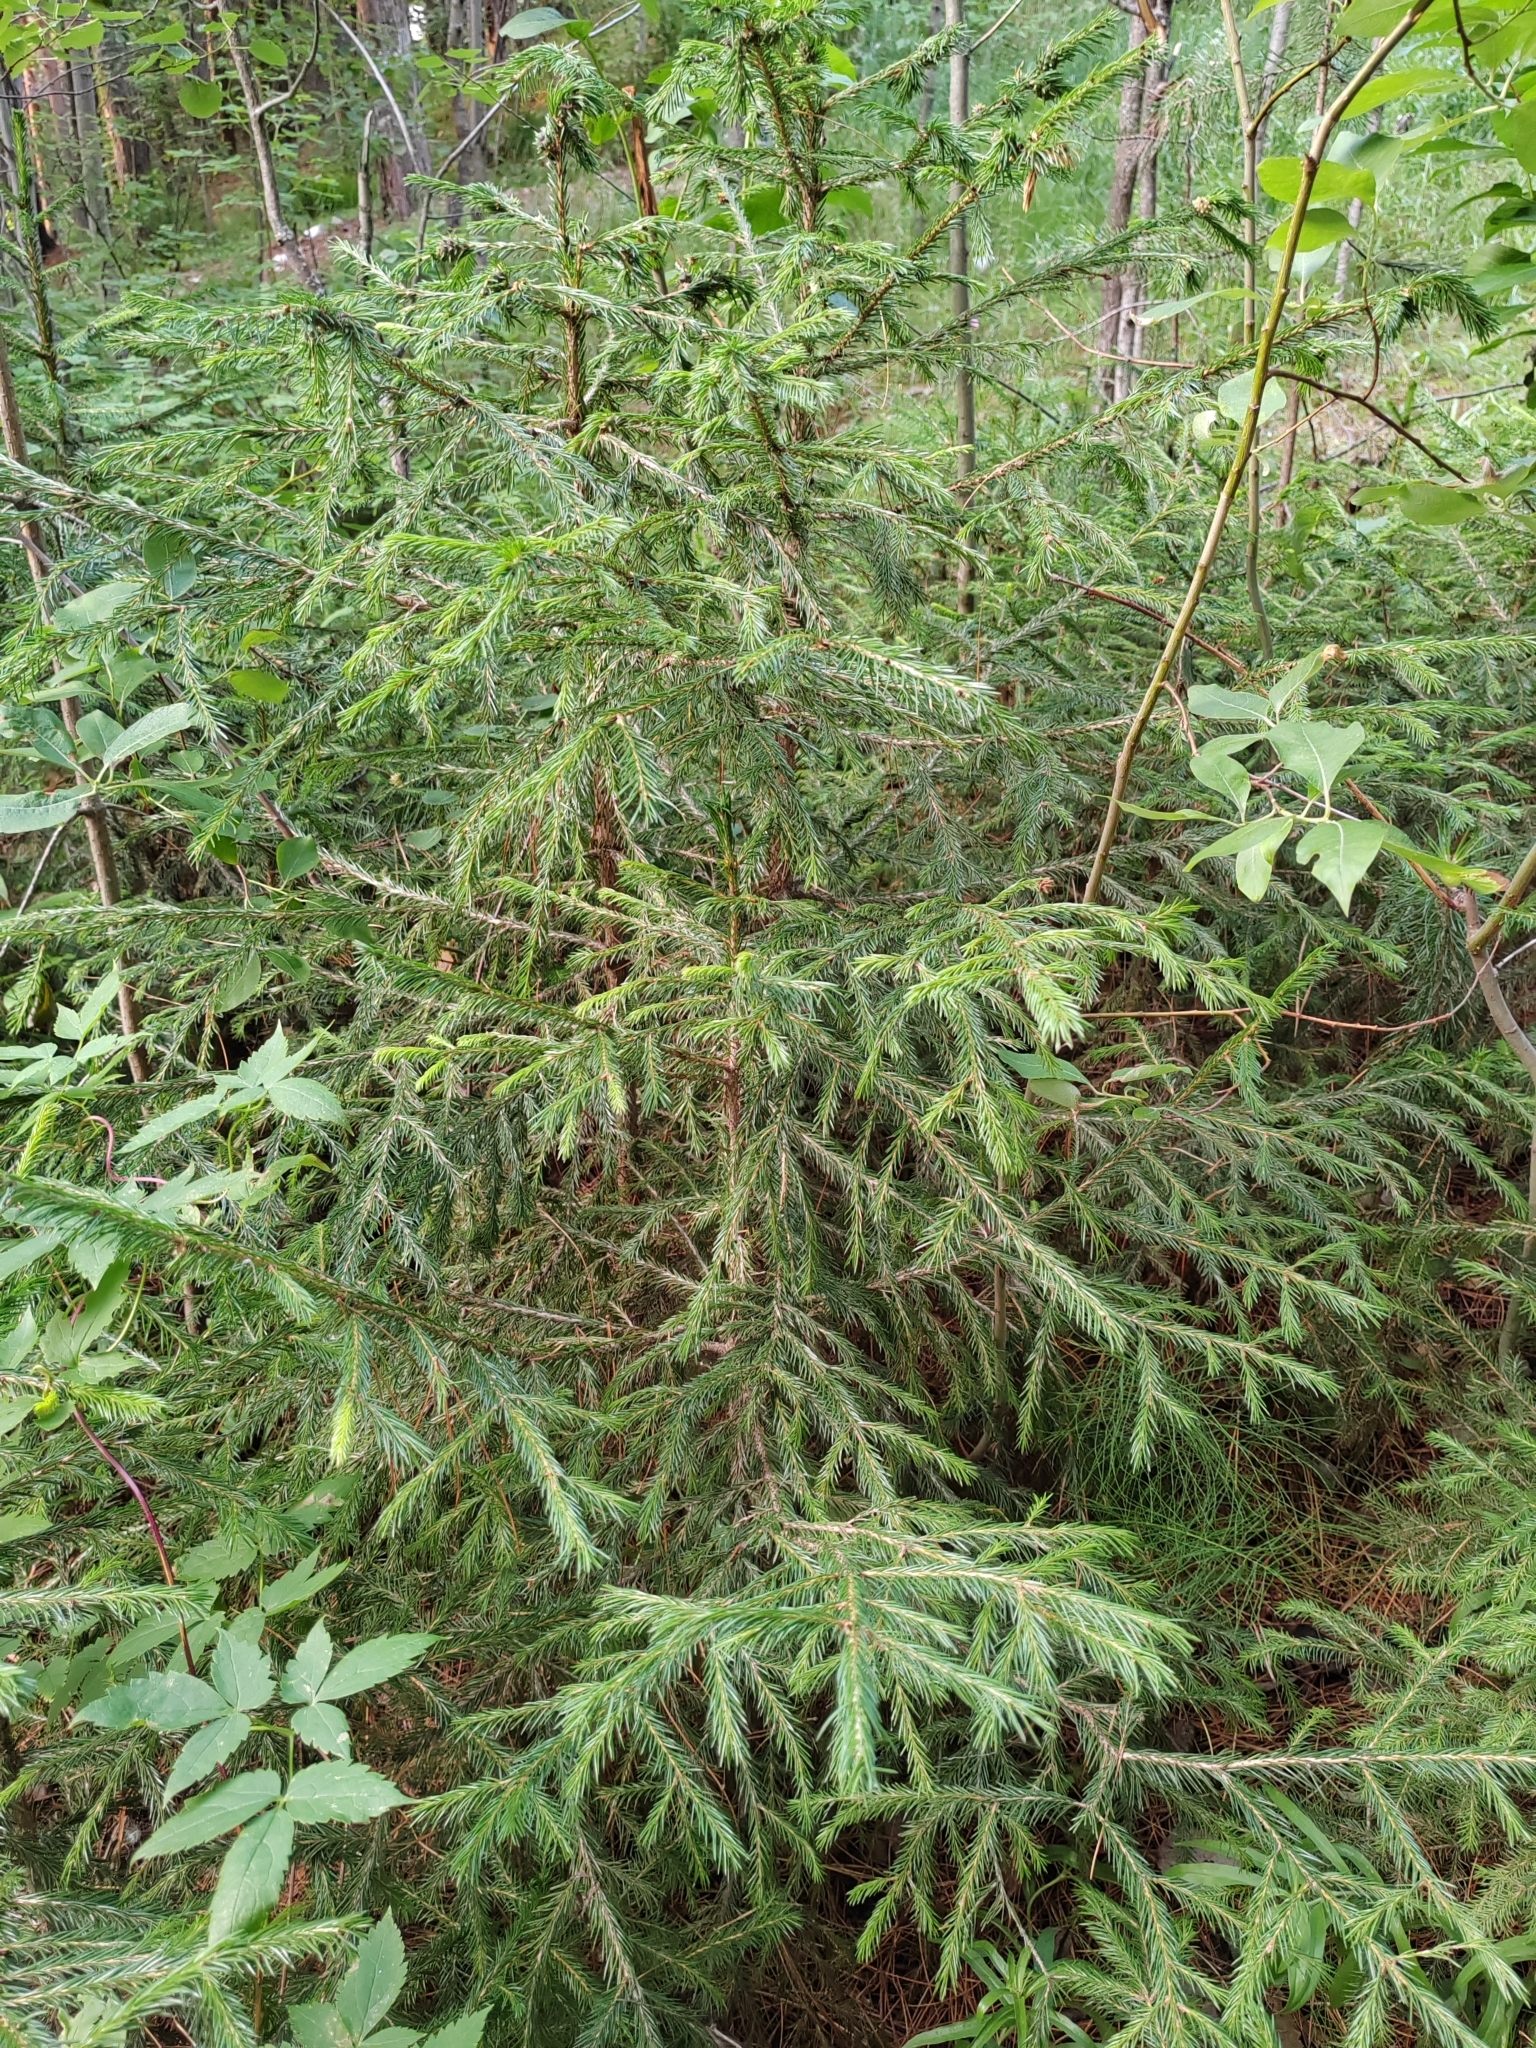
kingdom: Plantae
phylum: Tracheophyta
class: Pinopsida
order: Pinales
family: Pinaceae
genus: Picea
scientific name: Picea obovata
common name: Siberian spruce
